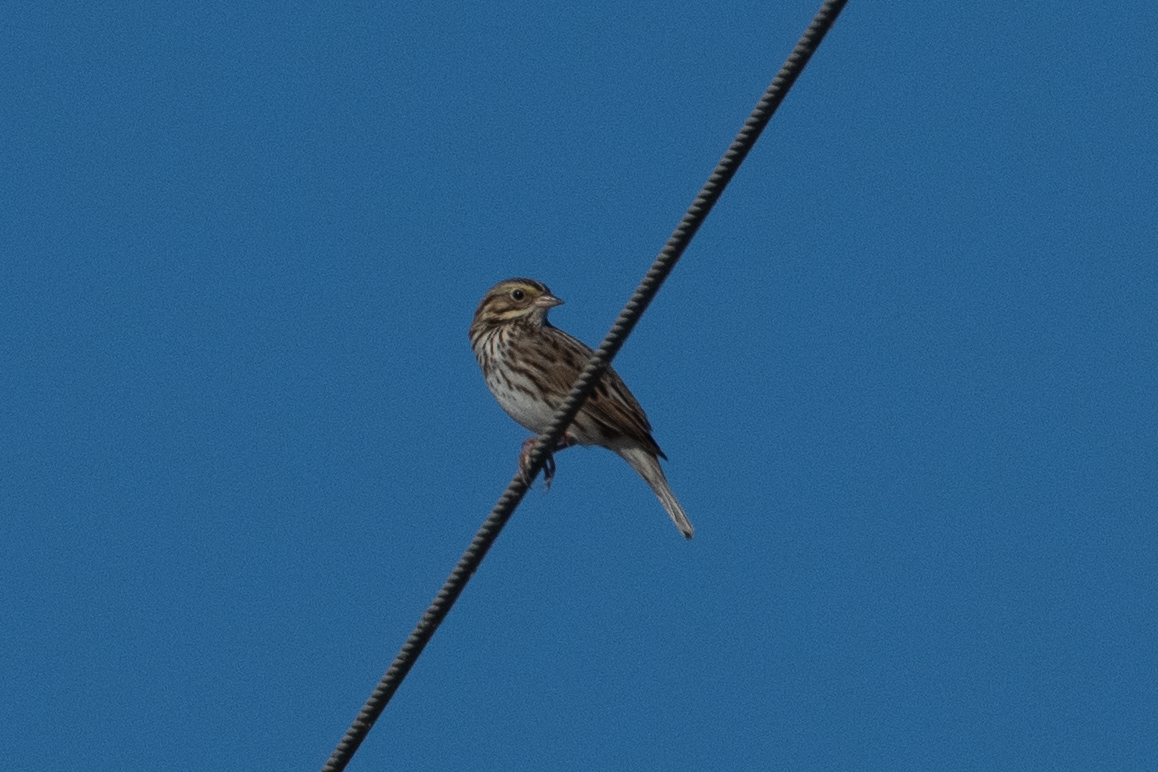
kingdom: Animalia
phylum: Chordata
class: Aves
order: Passeriformes
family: Passerellidae
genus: Passerculus
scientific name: Passerculus sandwichensis
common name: Savannah sparrow
